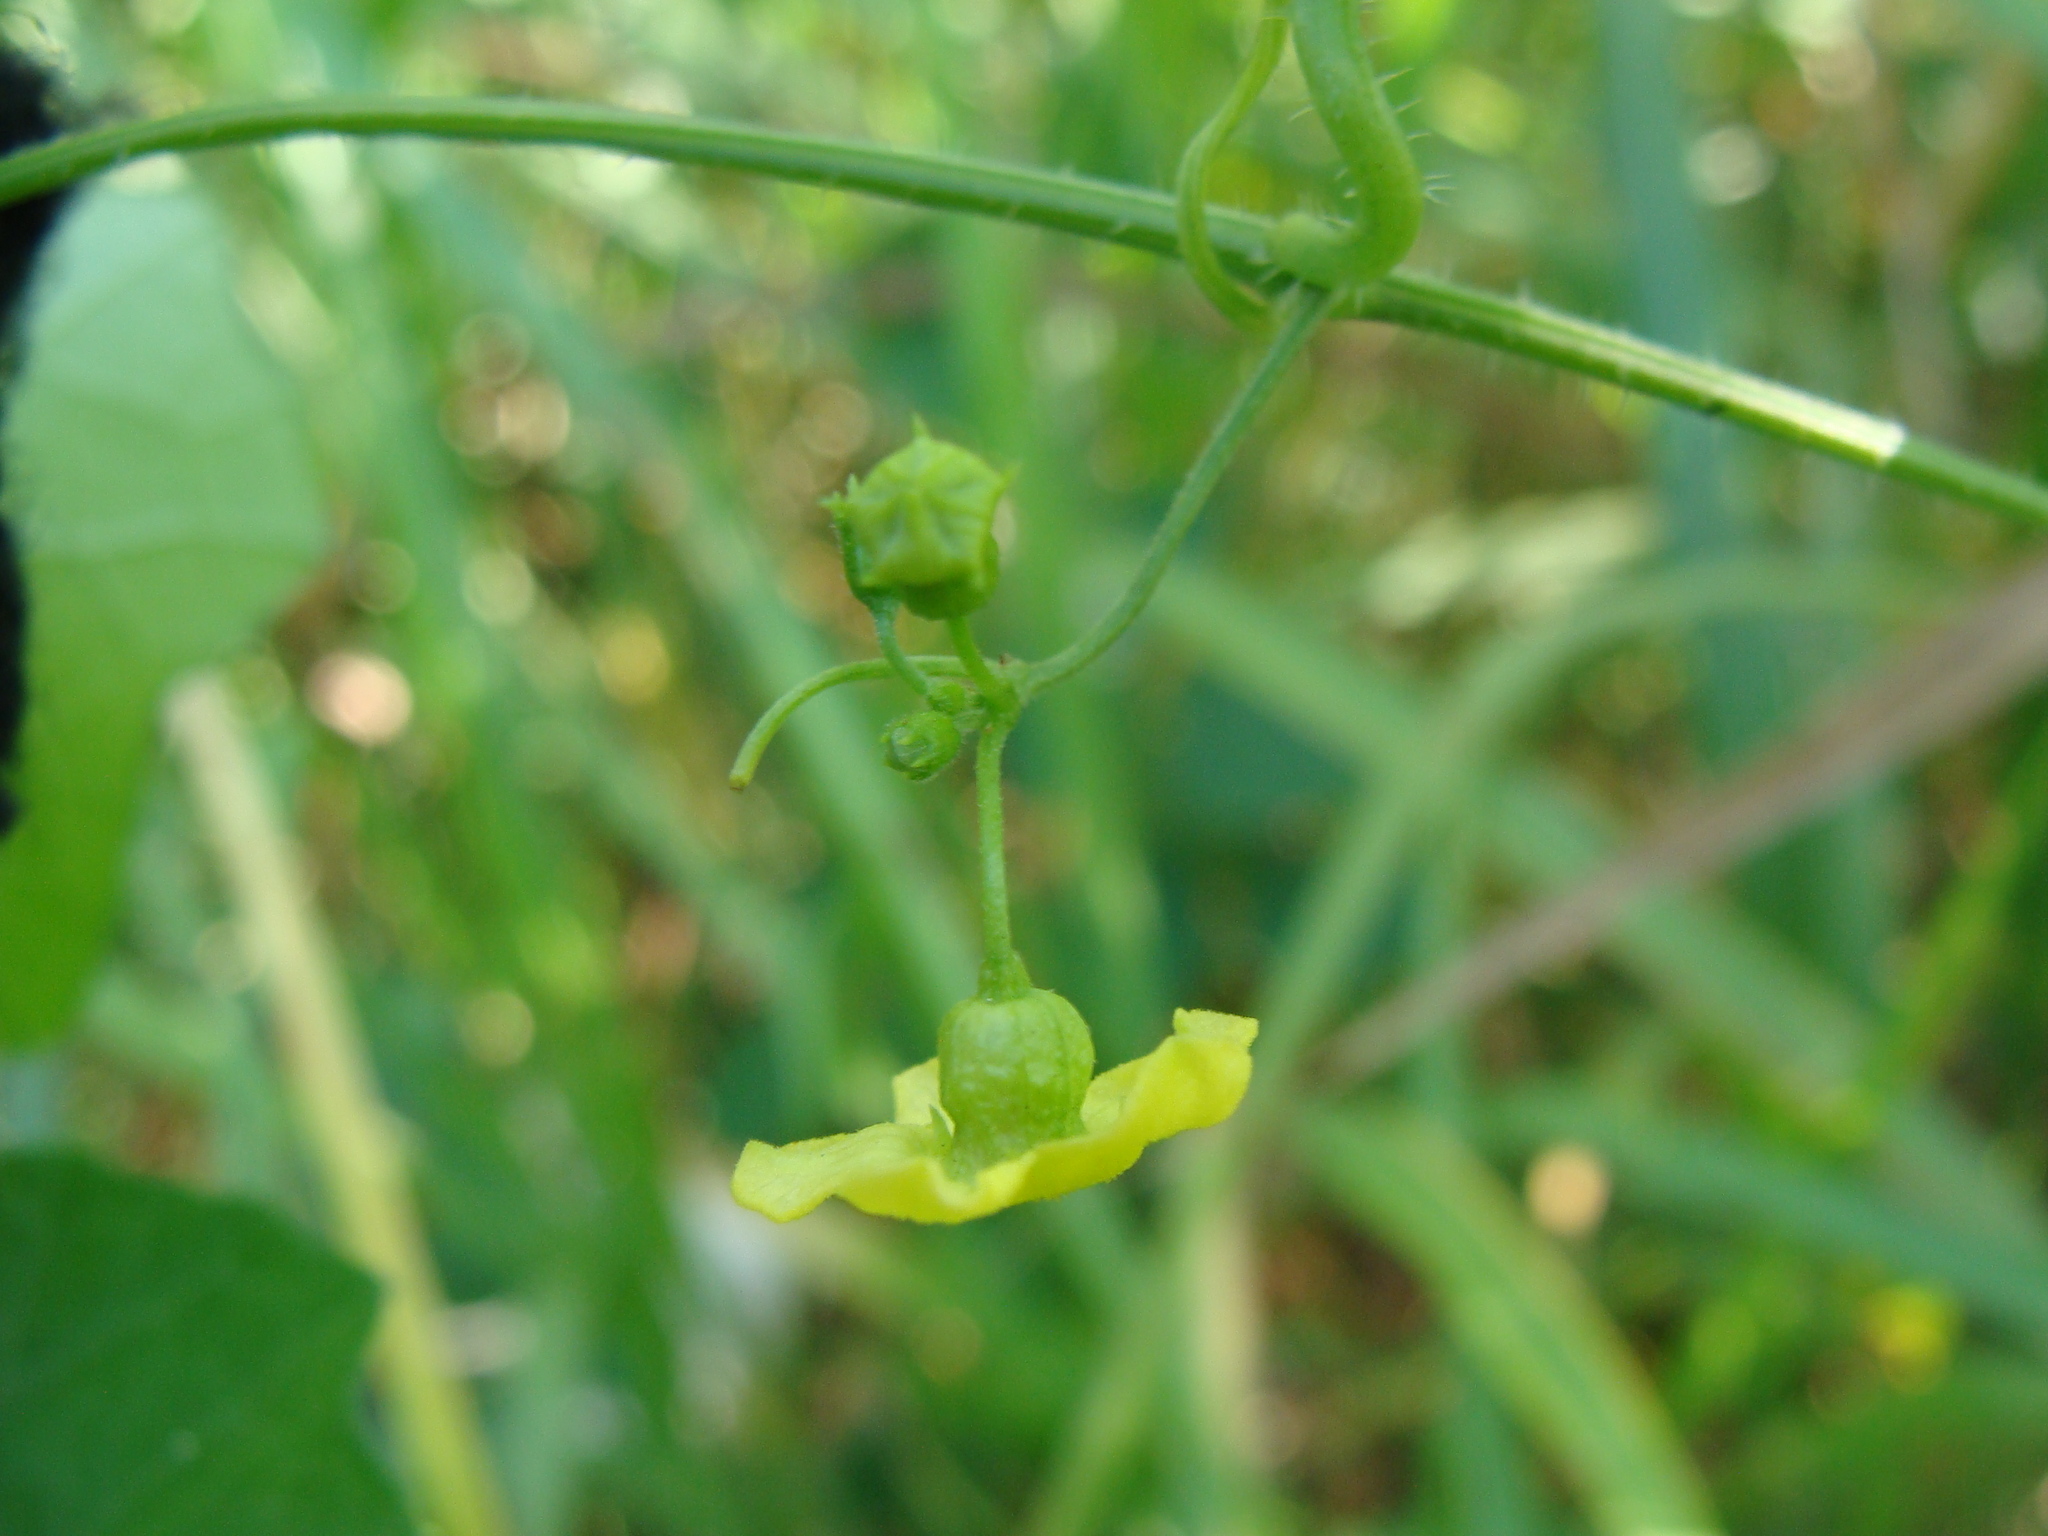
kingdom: Plantae
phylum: Tracheophyta
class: Magnoliopsida
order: Cucurbitales
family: Cucurbitaceae
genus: Melothria
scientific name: Melothria pendula
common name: Creeping-cucumber
